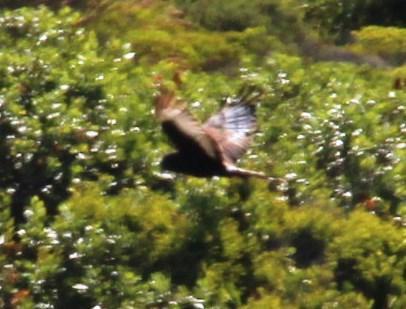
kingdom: Animalia
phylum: Chordata
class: Aves
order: Accipitriformes
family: Accipitridae
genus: Circus
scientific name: Circus maurus
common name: Black harrier
